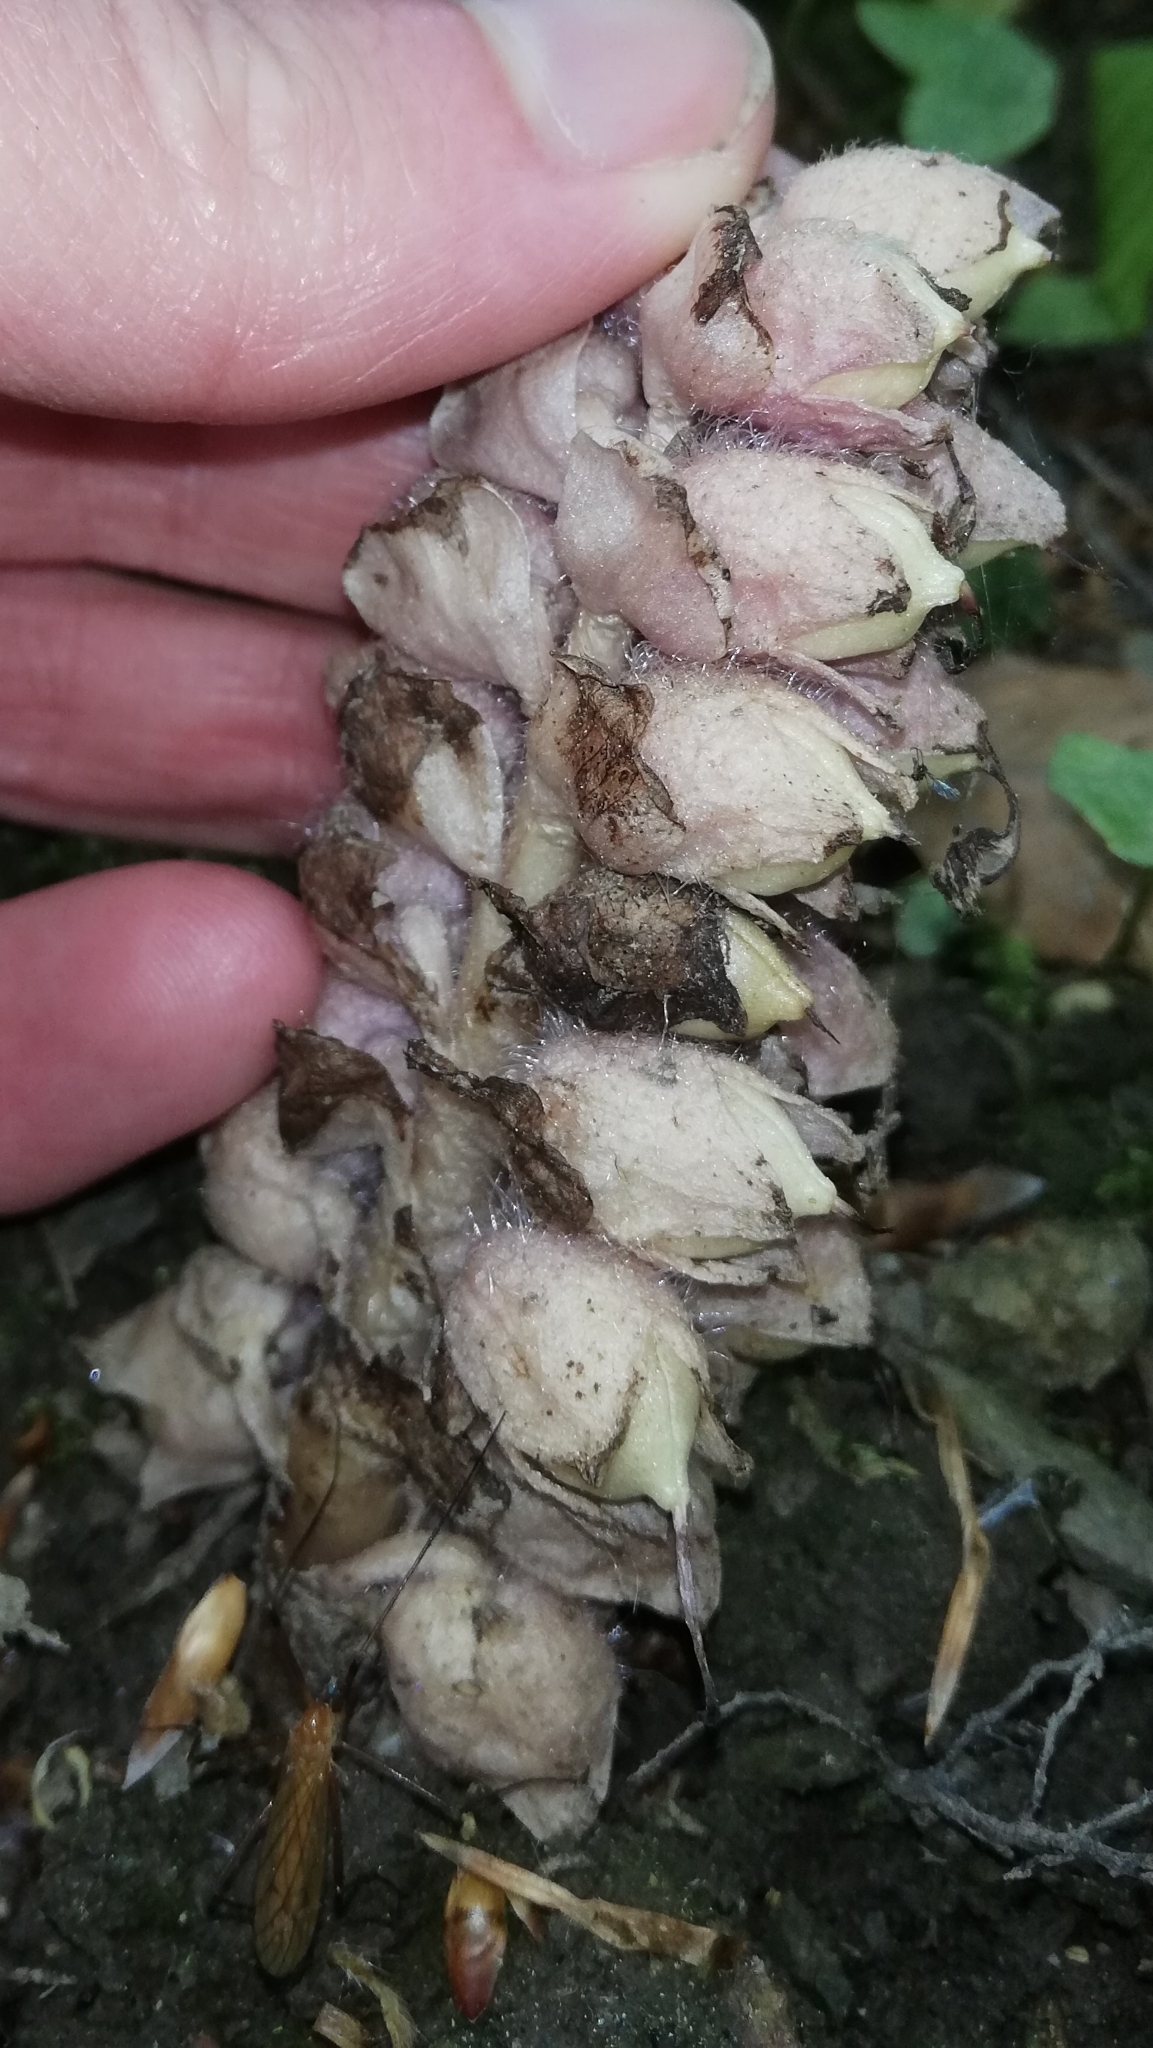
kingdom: Plantae
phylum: Tracheophyta
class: Magnoliopsida
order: Lamiales
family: Orobanchaceae
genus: Lathraea
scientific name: Lathraea squamaria
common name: Toothwort
